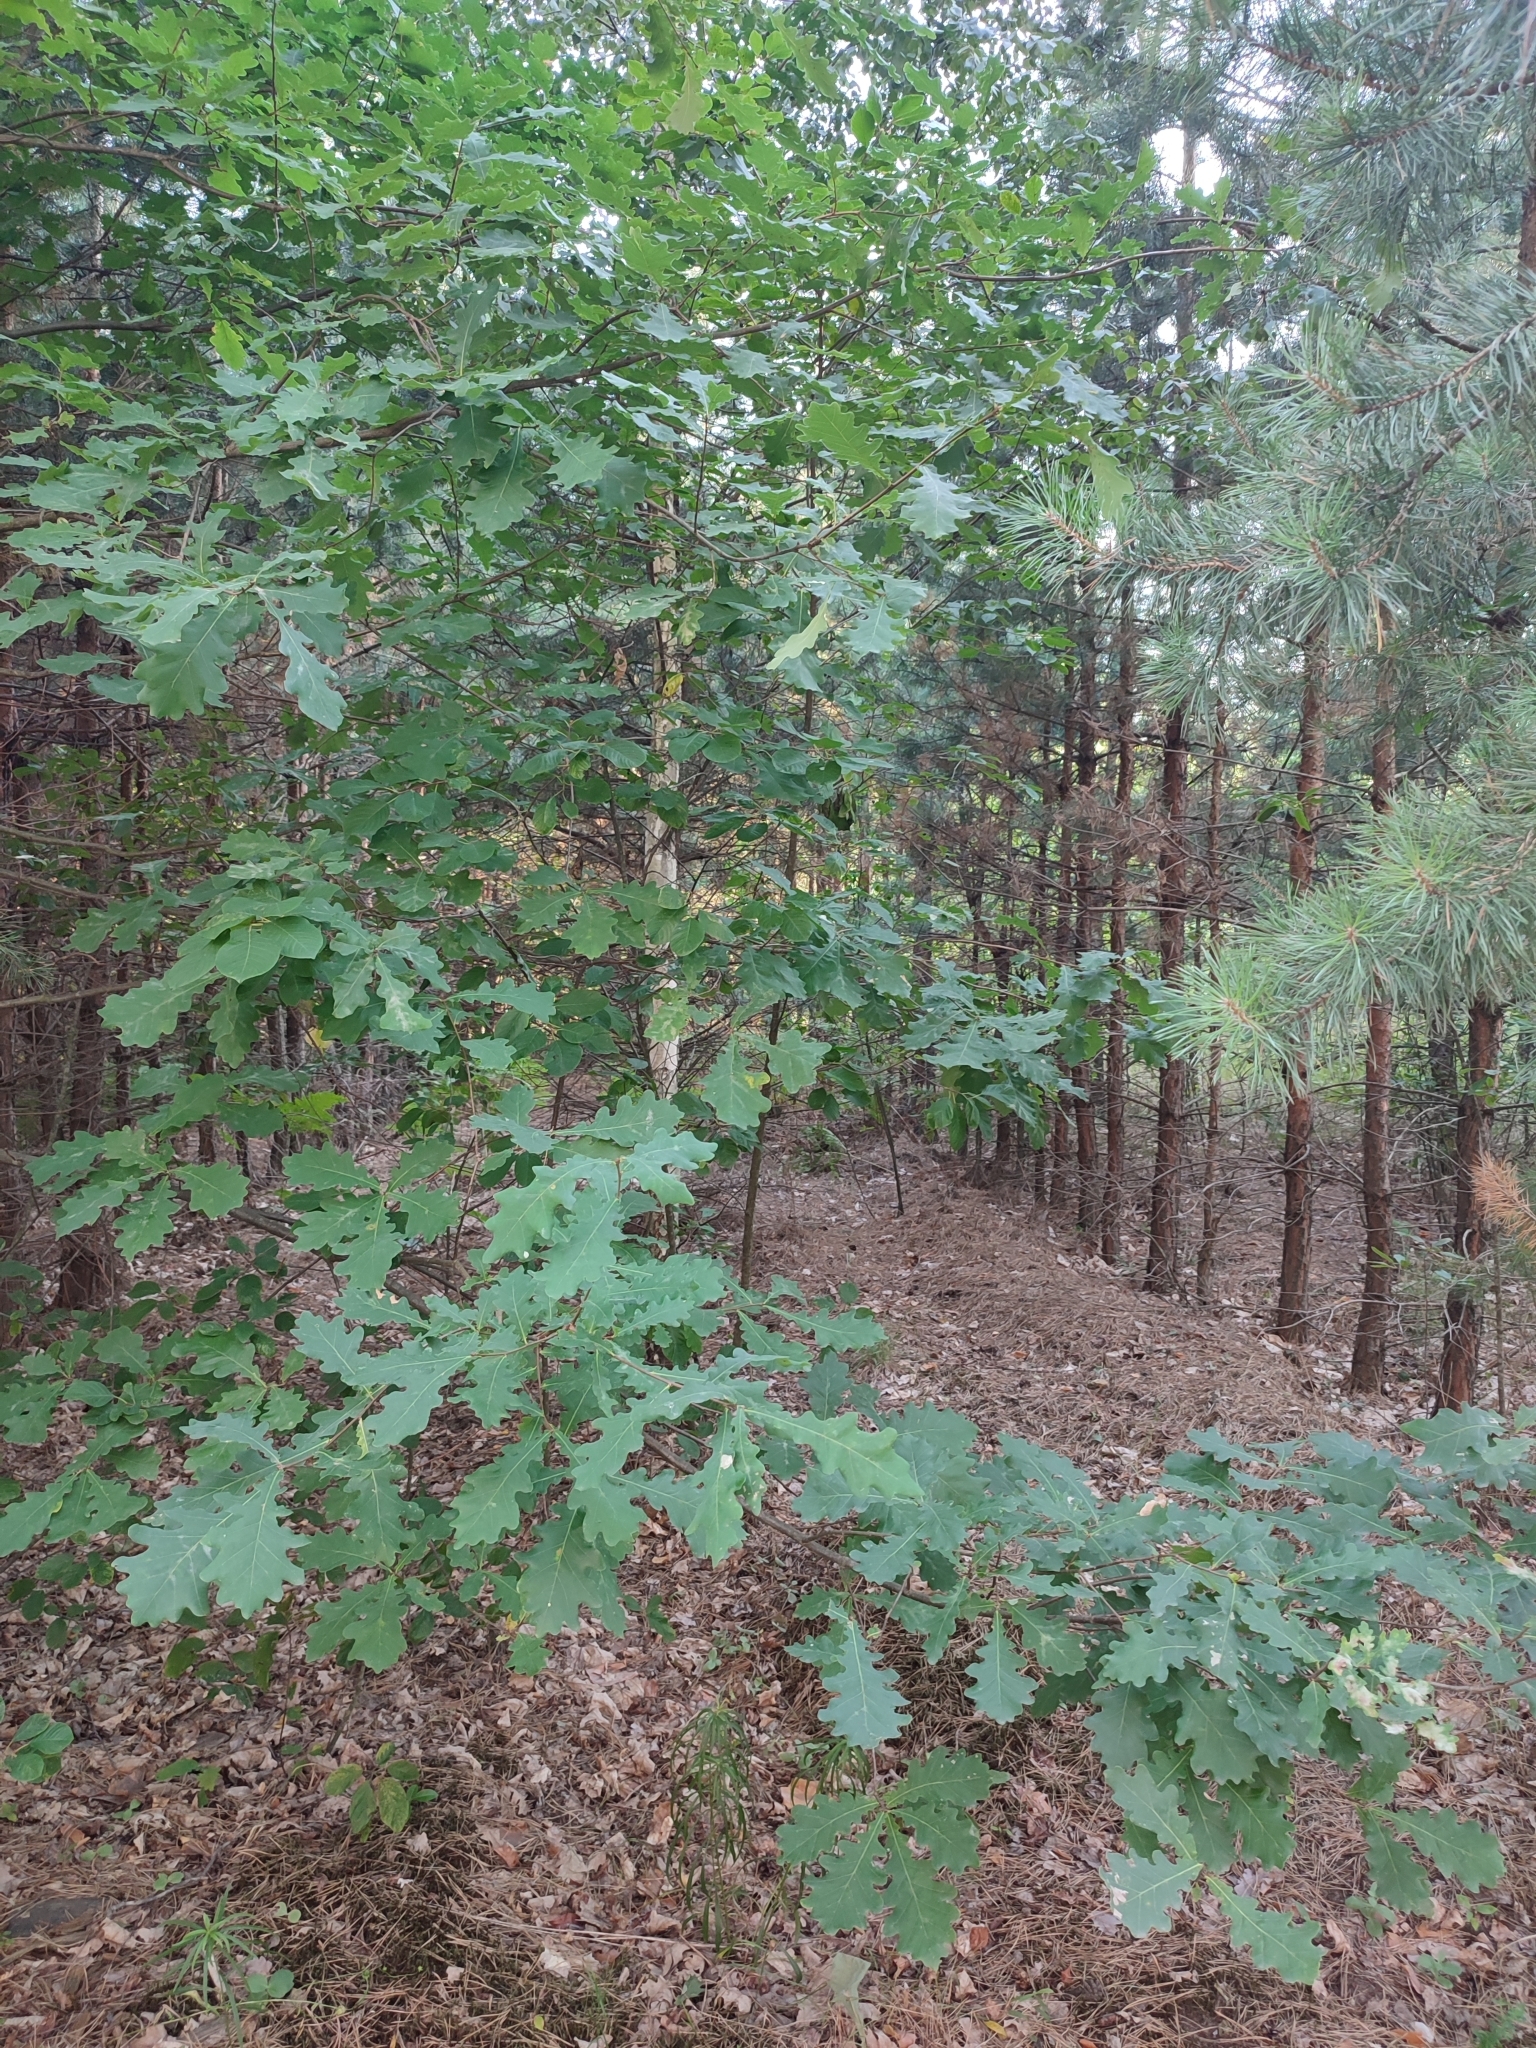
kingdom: Plantae
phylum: Tracheophyta
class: Magnoliopsida
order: Fagales
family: Fagaceae
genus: Quercus
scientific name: Quercus robur
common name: Pedunculate oak
